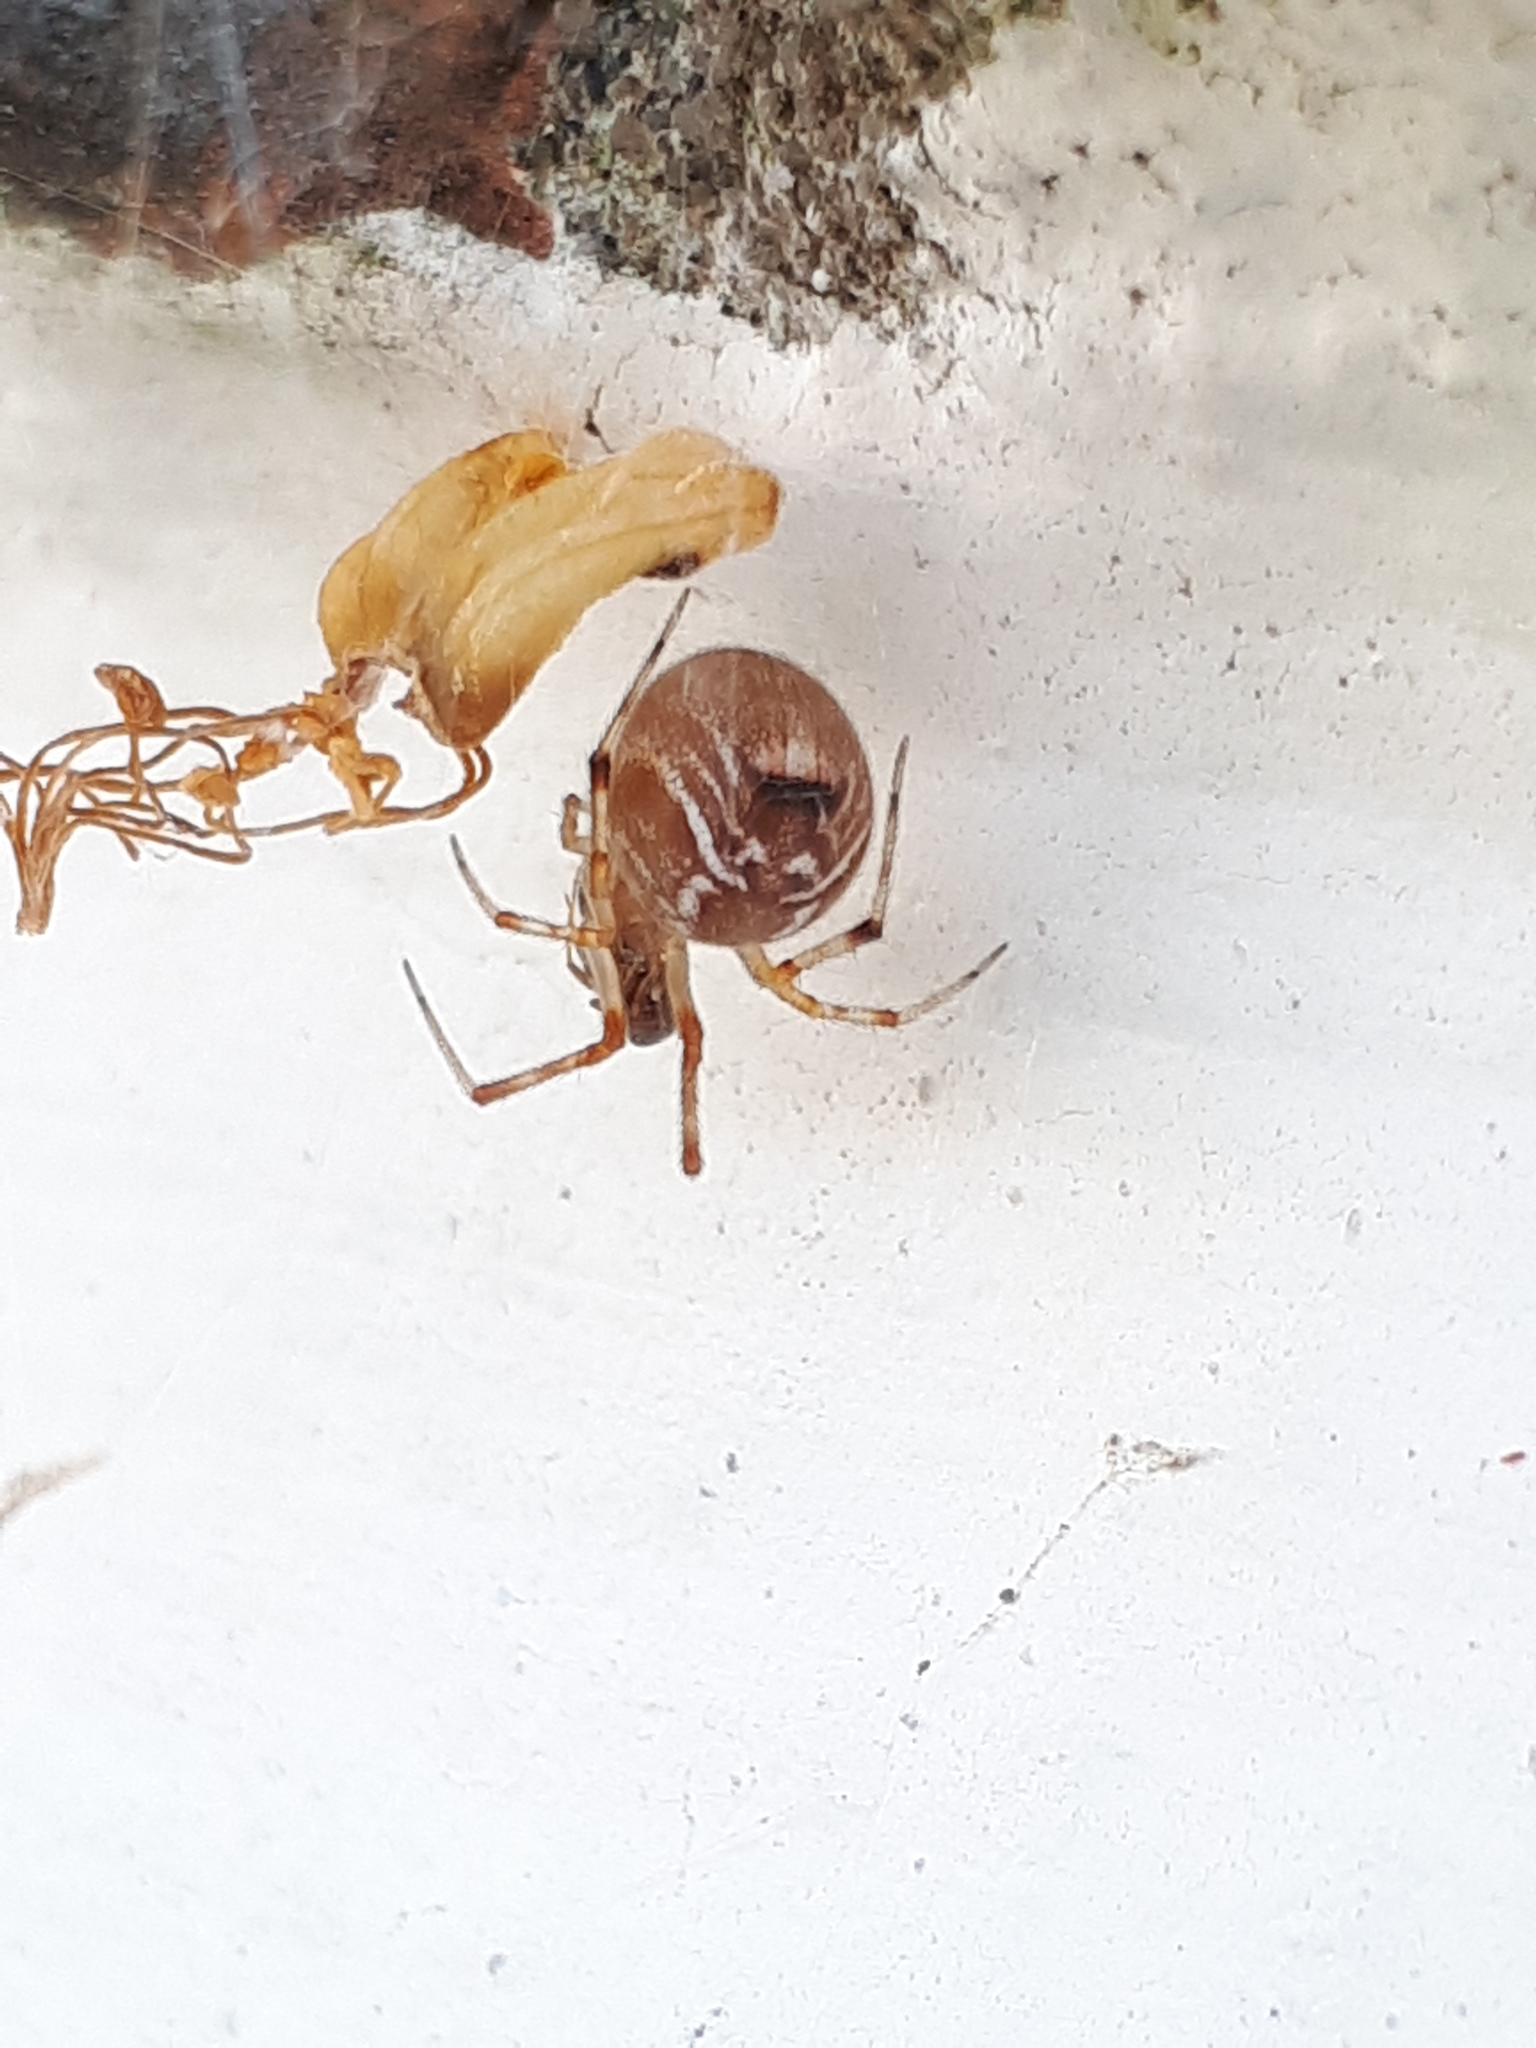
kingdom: Animalia
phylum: Arthropoda
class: Arachnida
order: Araneae
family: Theridiidae
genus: Parasteatoda
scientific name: Parasteatoda lunata
